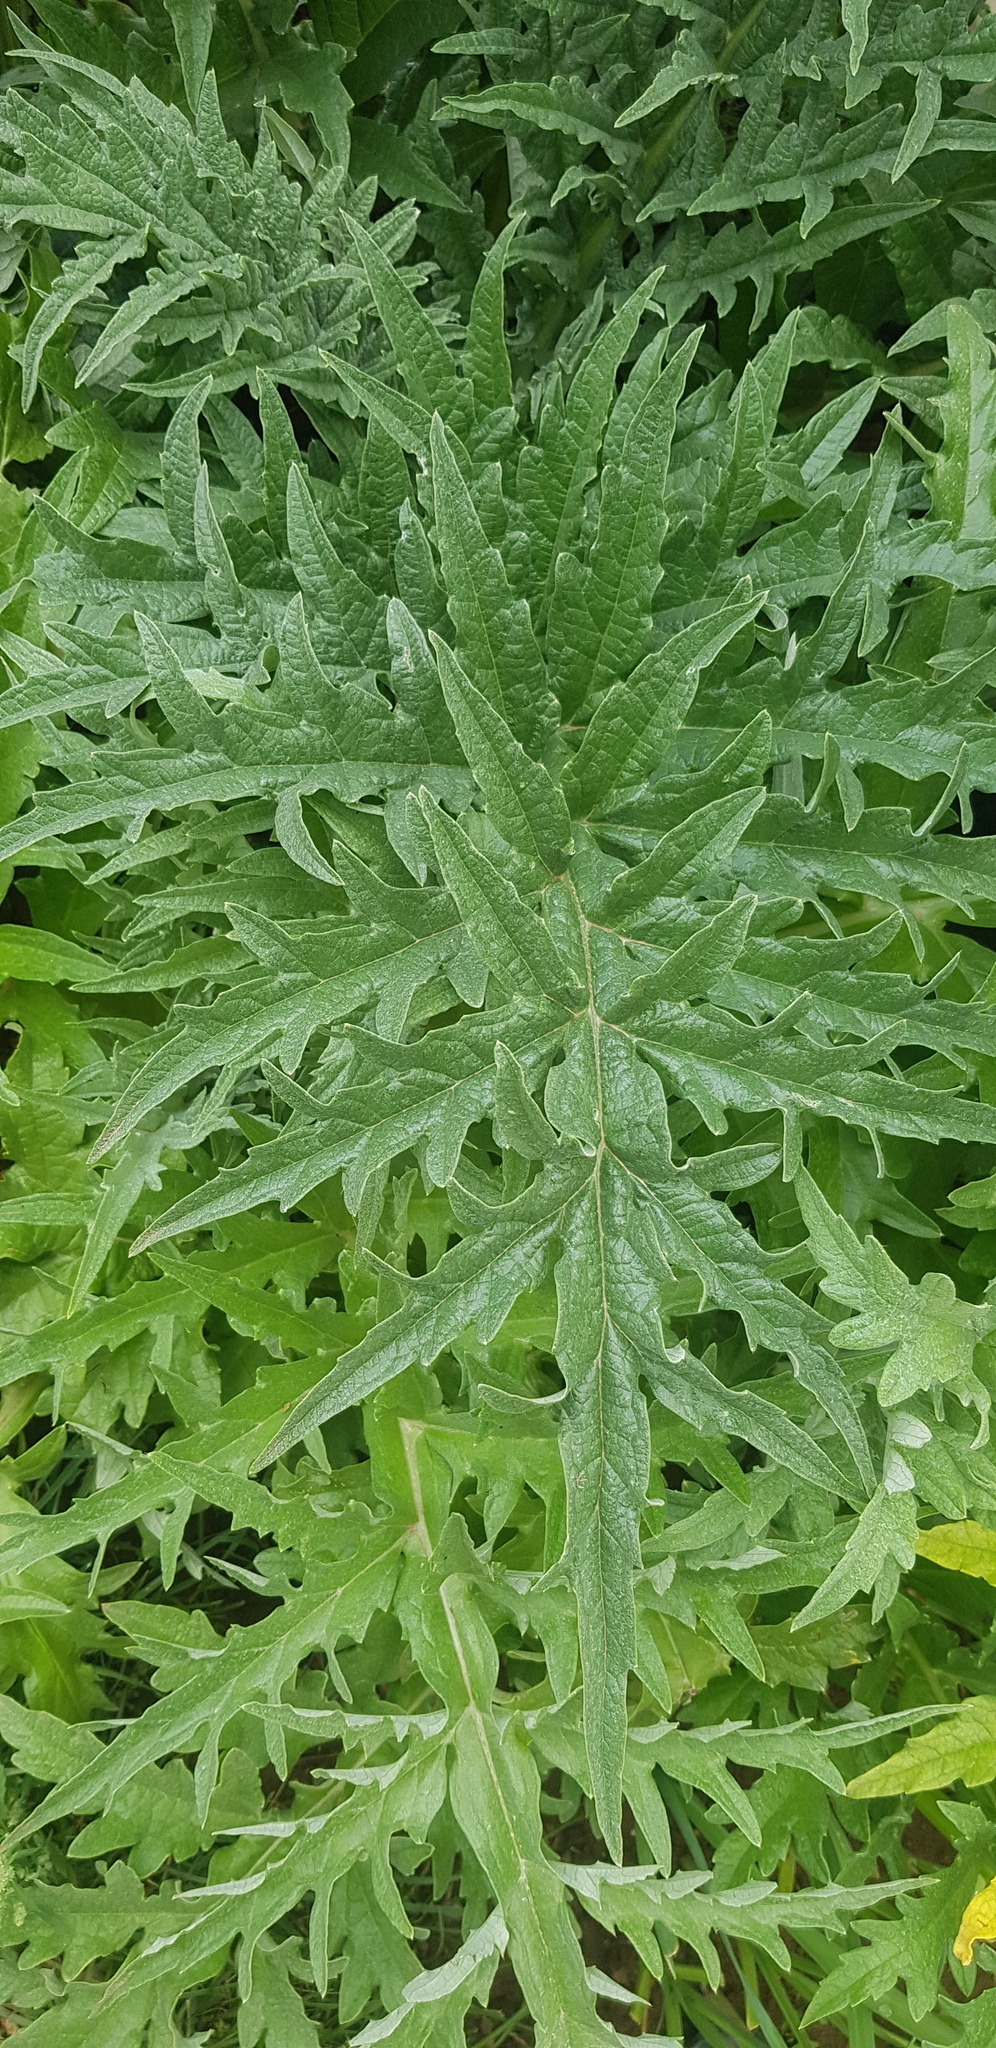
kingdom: Plantae
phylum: Tracheophyta
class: Magnoliopsida
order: Rosales
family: Urticaceae
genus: Urtica
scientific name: Urtica cannabina
